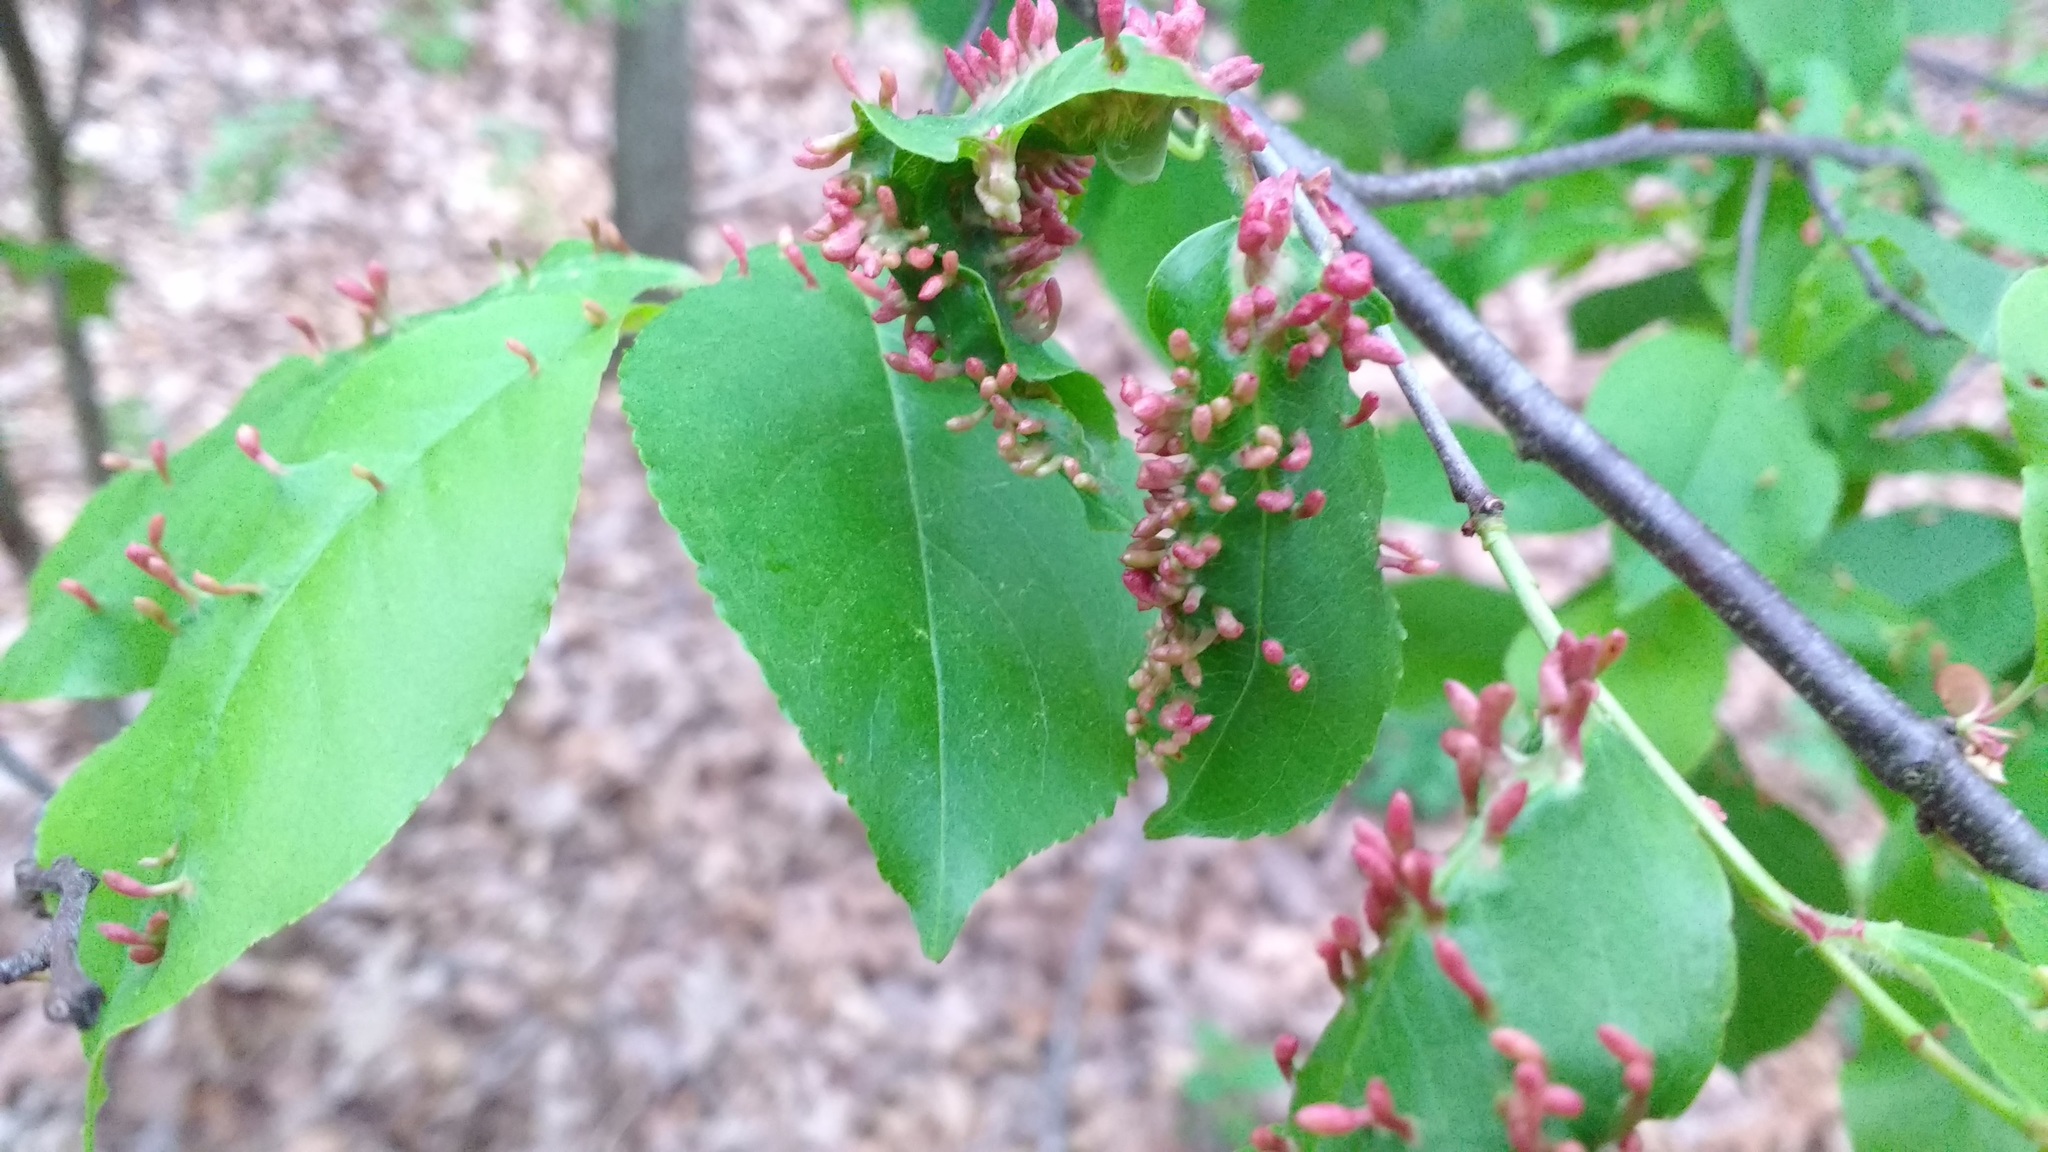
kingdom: Animalia
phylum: Arthropoda
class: Arachnida
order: Trombidiformes
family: Eriophyidae
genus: Eriophyes
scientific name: Eriophyes
